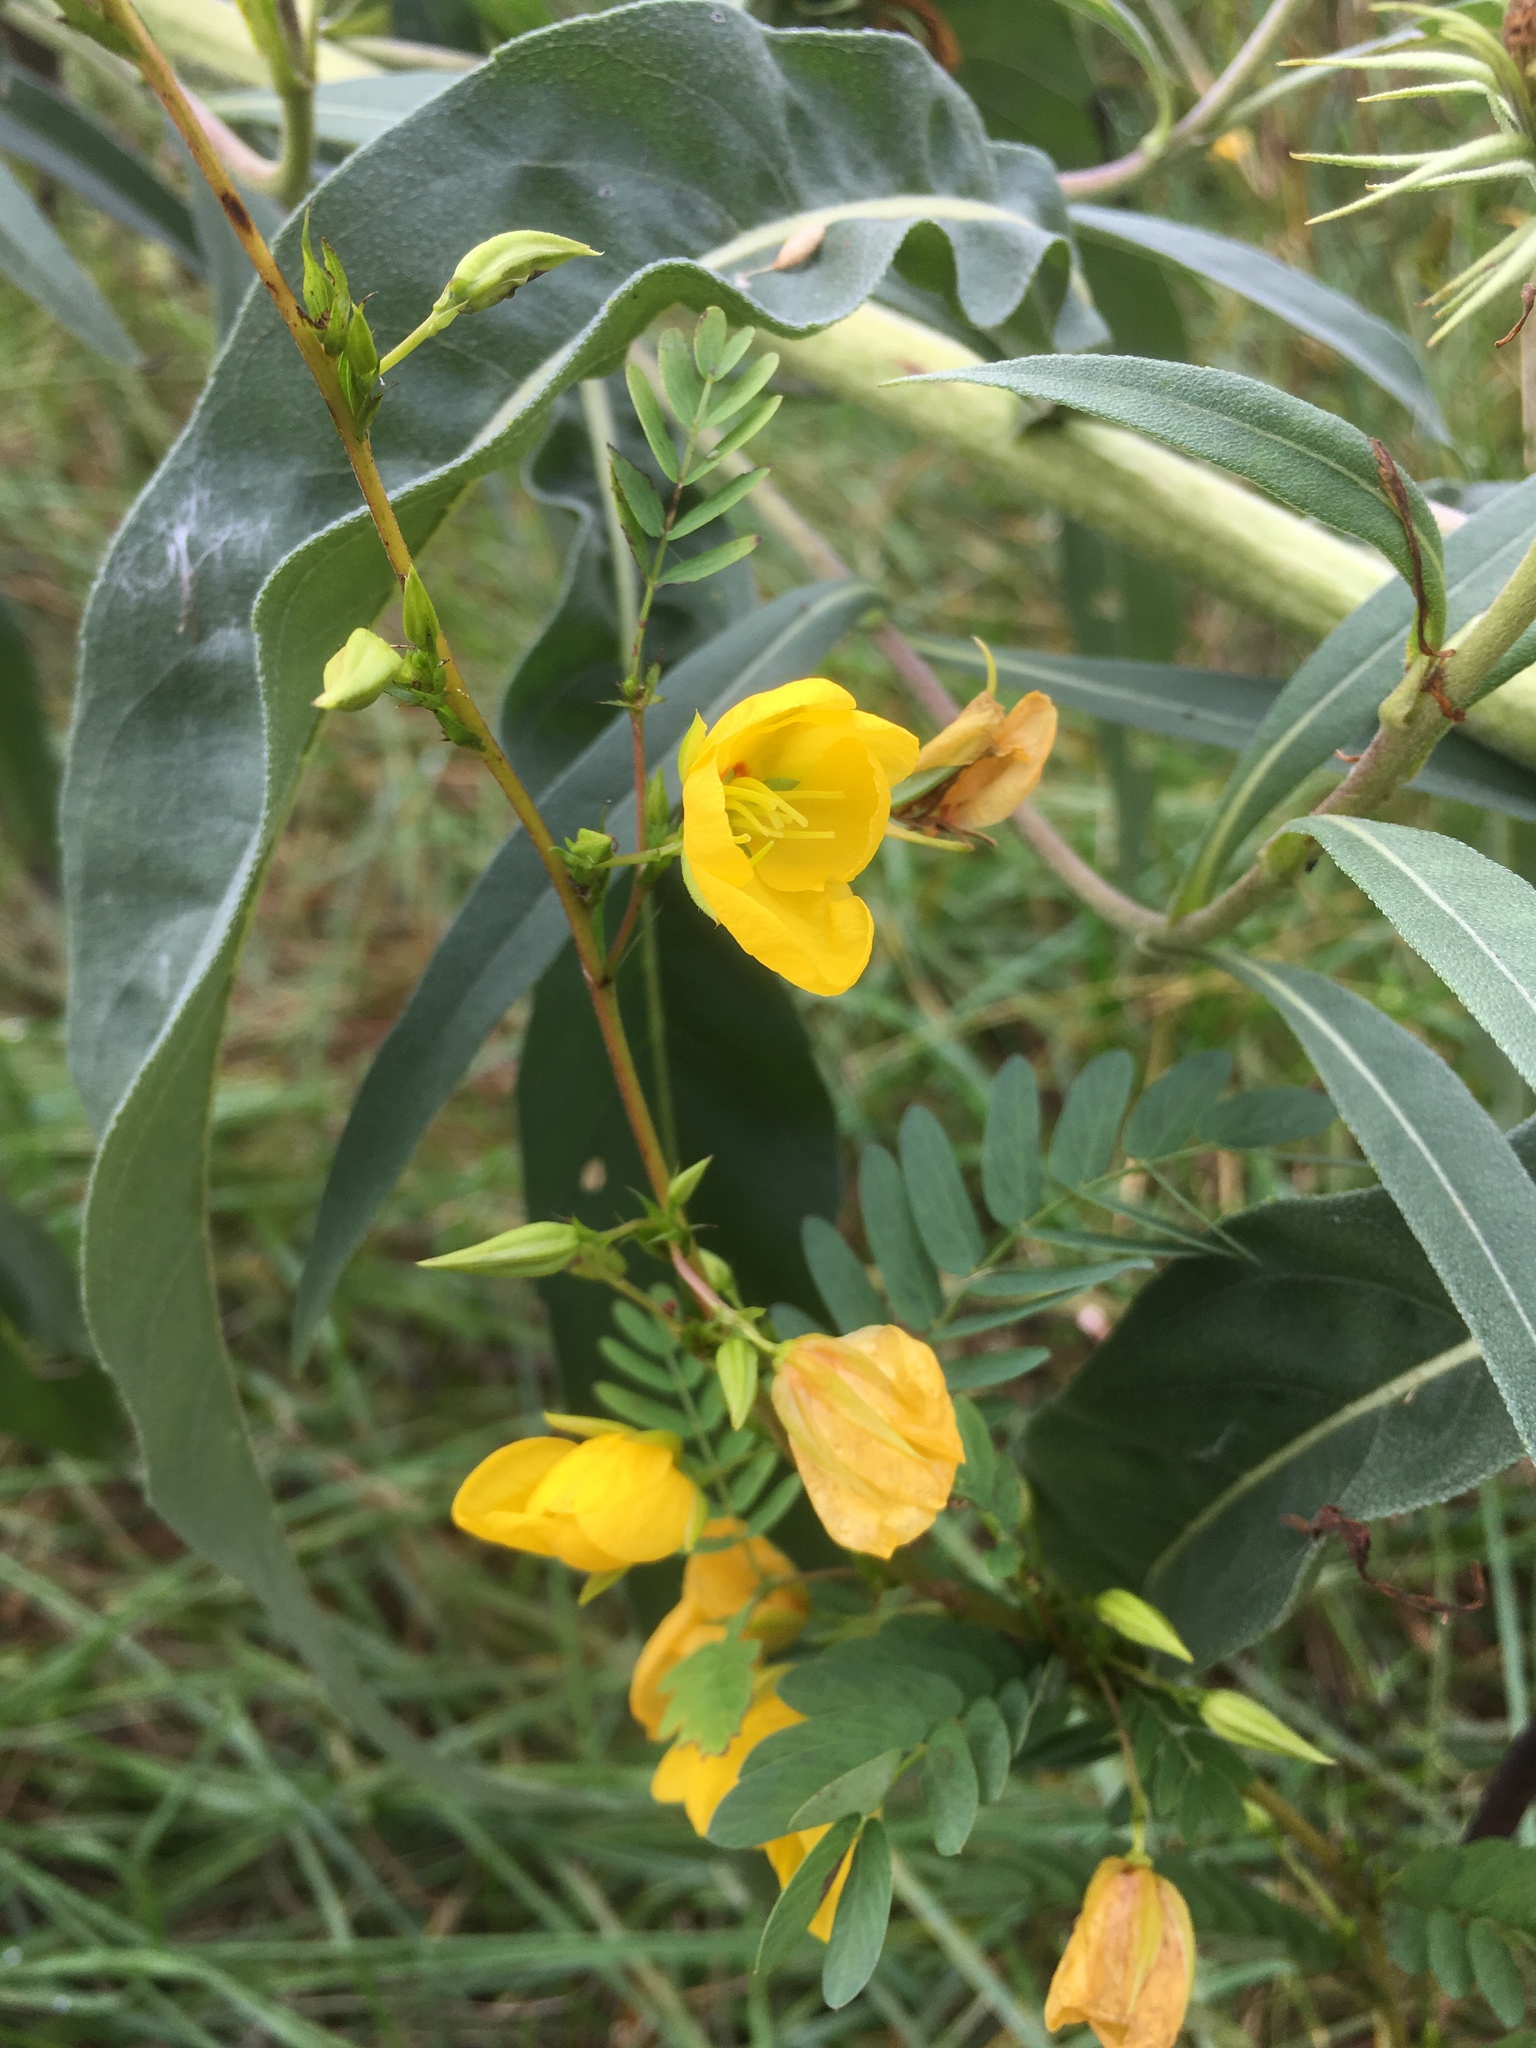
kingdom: Plantae
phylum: Tracheophyta
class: Magnoliopsida
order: Fabales
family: Fabaceae
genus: Chamaecrista
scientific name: Chamaecrista fasciculata
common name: Golden cassia
